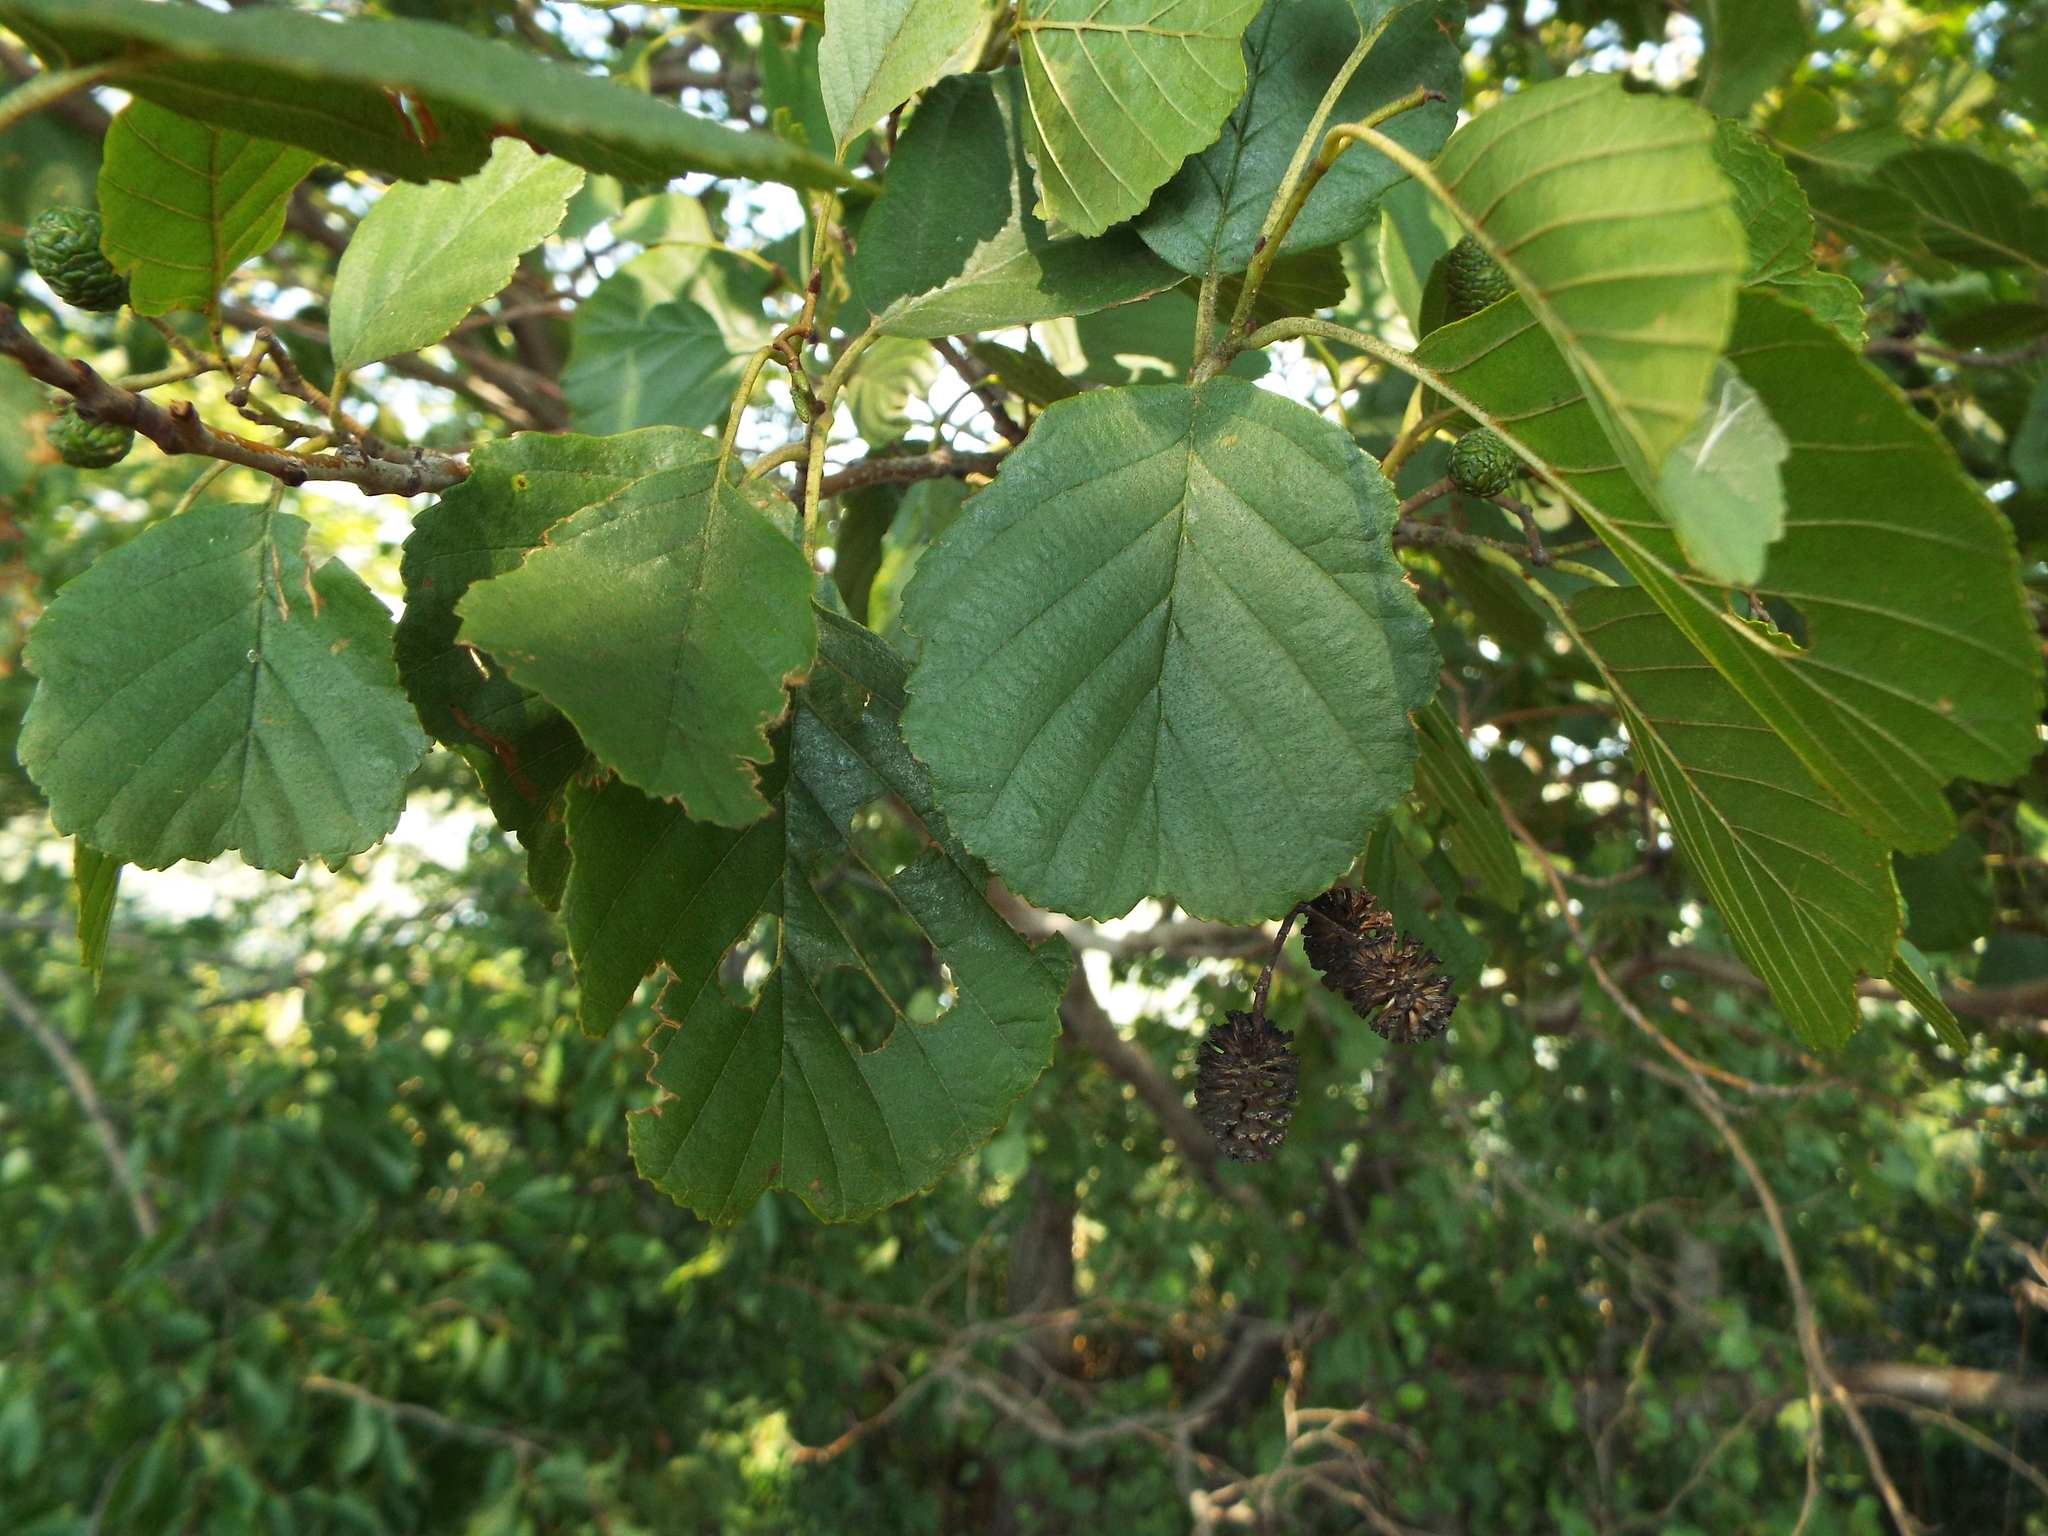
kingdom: Plantae
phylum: Tracheophyta
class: Magnoliopsida
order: Fagales
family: Betulaceae
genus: Alnus
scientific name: Alnus glutinosa
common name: Black alder
